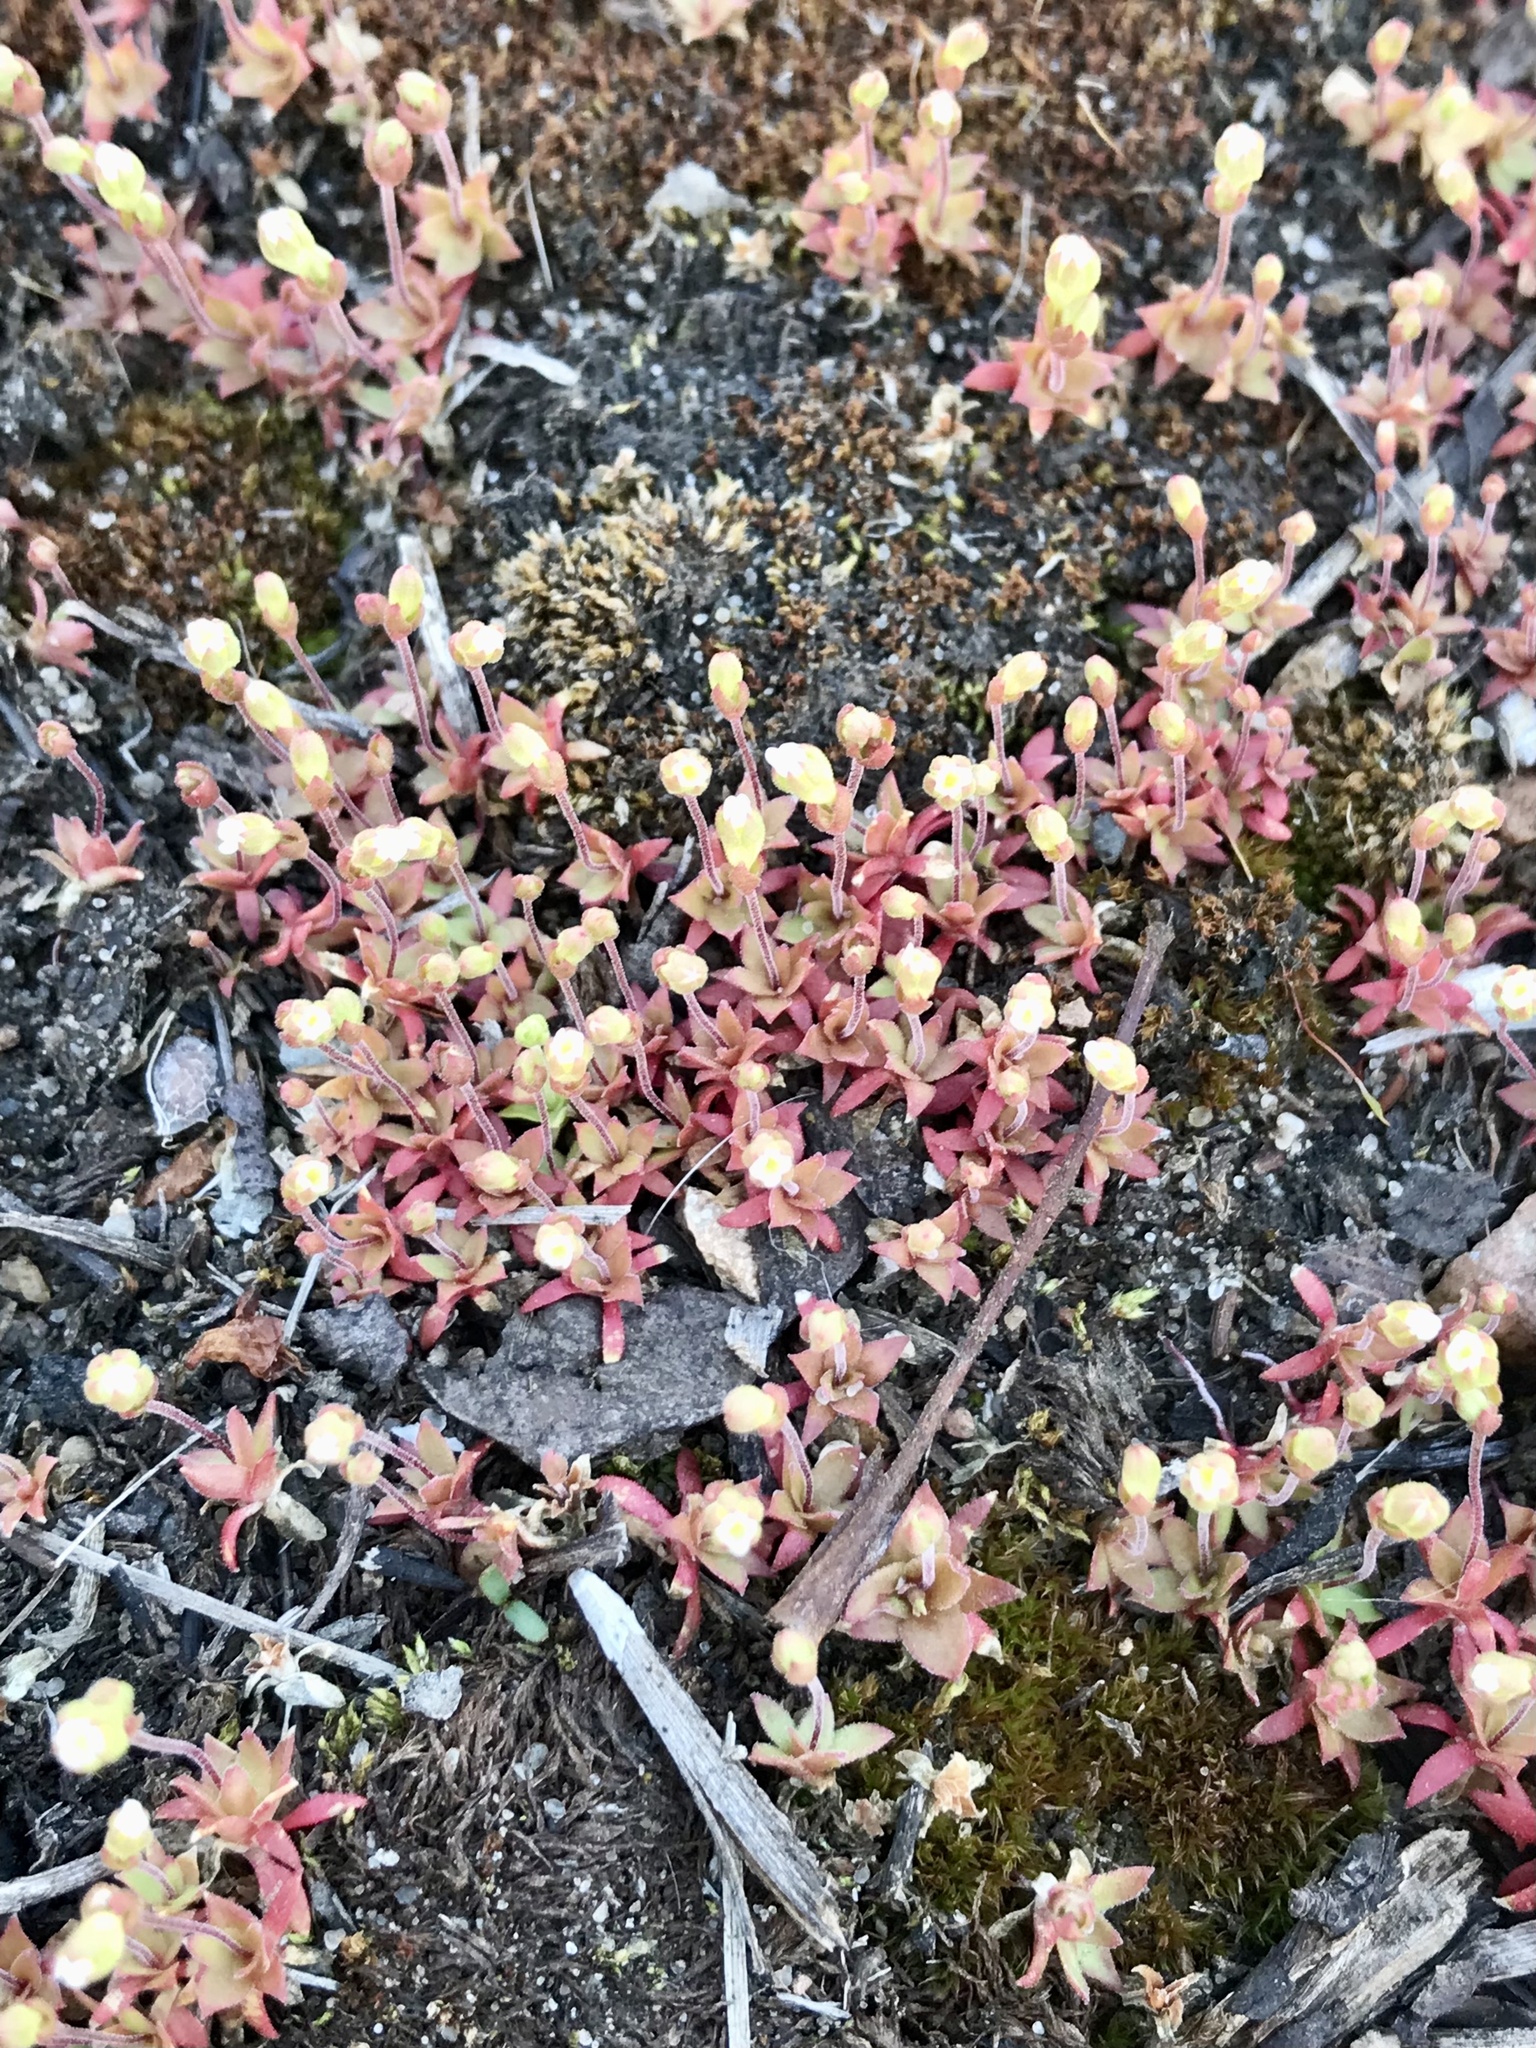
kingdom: Plantae
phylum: Tracheophyta
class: Magnoliopsida
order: Ericales
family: Primulaceae
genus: Androsace
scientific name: Androsace occidentalis
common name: West rock-jasmine
